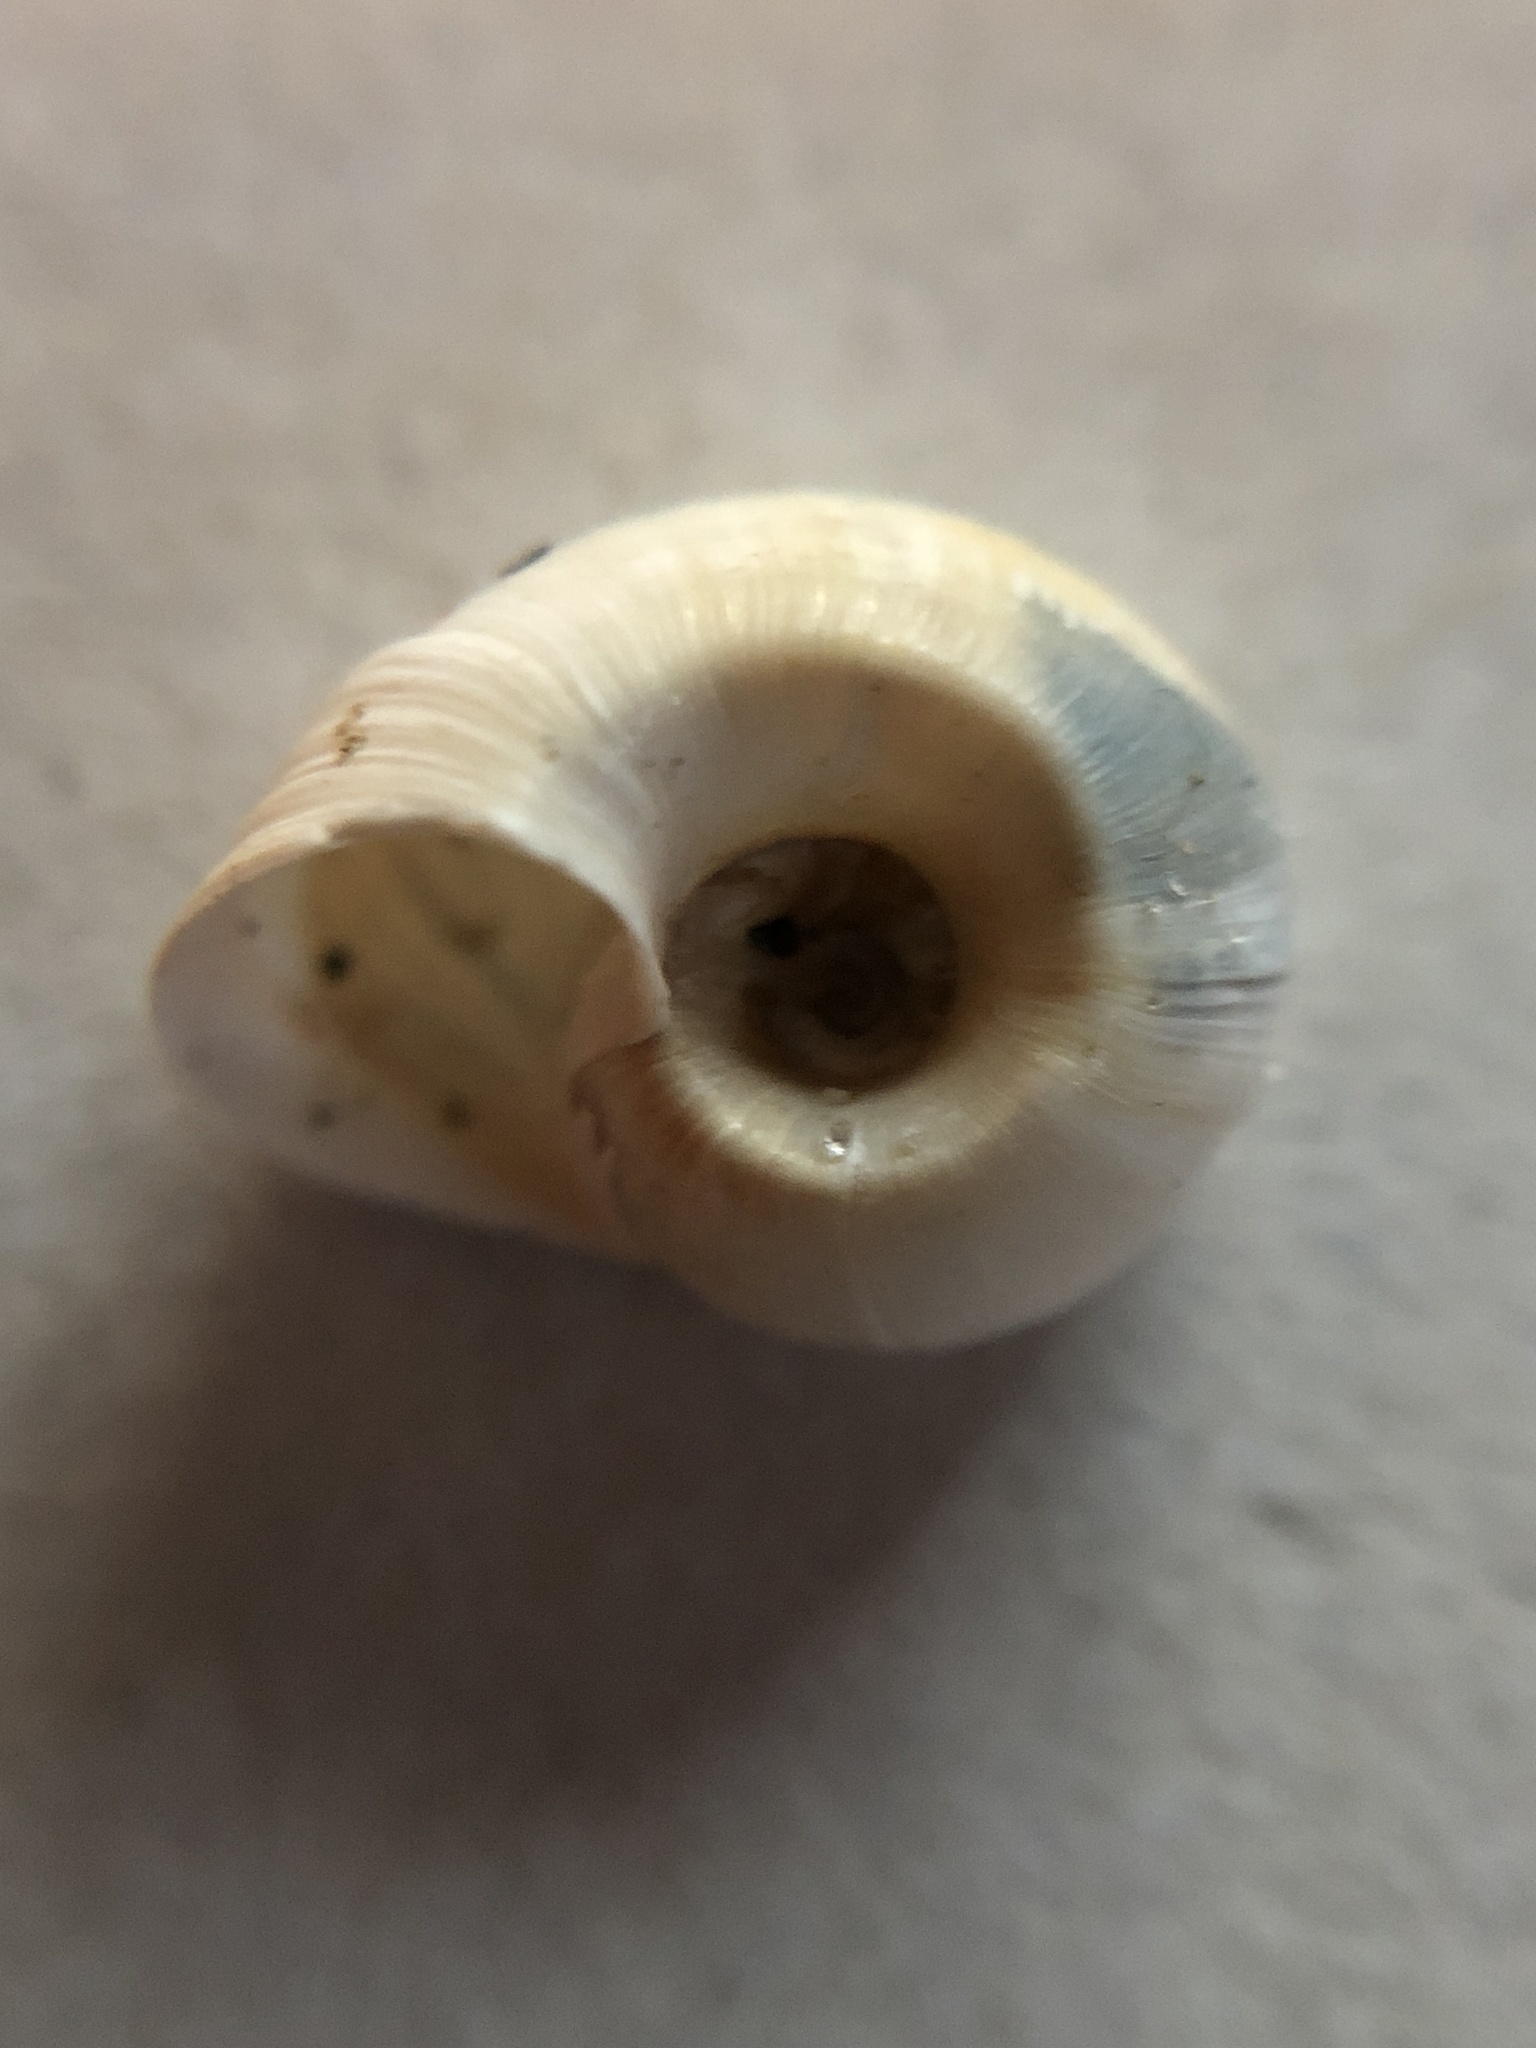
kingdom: Animalia
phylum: Mollusca
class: Gastropoda
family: Planorbidae
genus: Planorbella
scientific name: Planorbella trivolvis
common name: Marsh rams-horn
